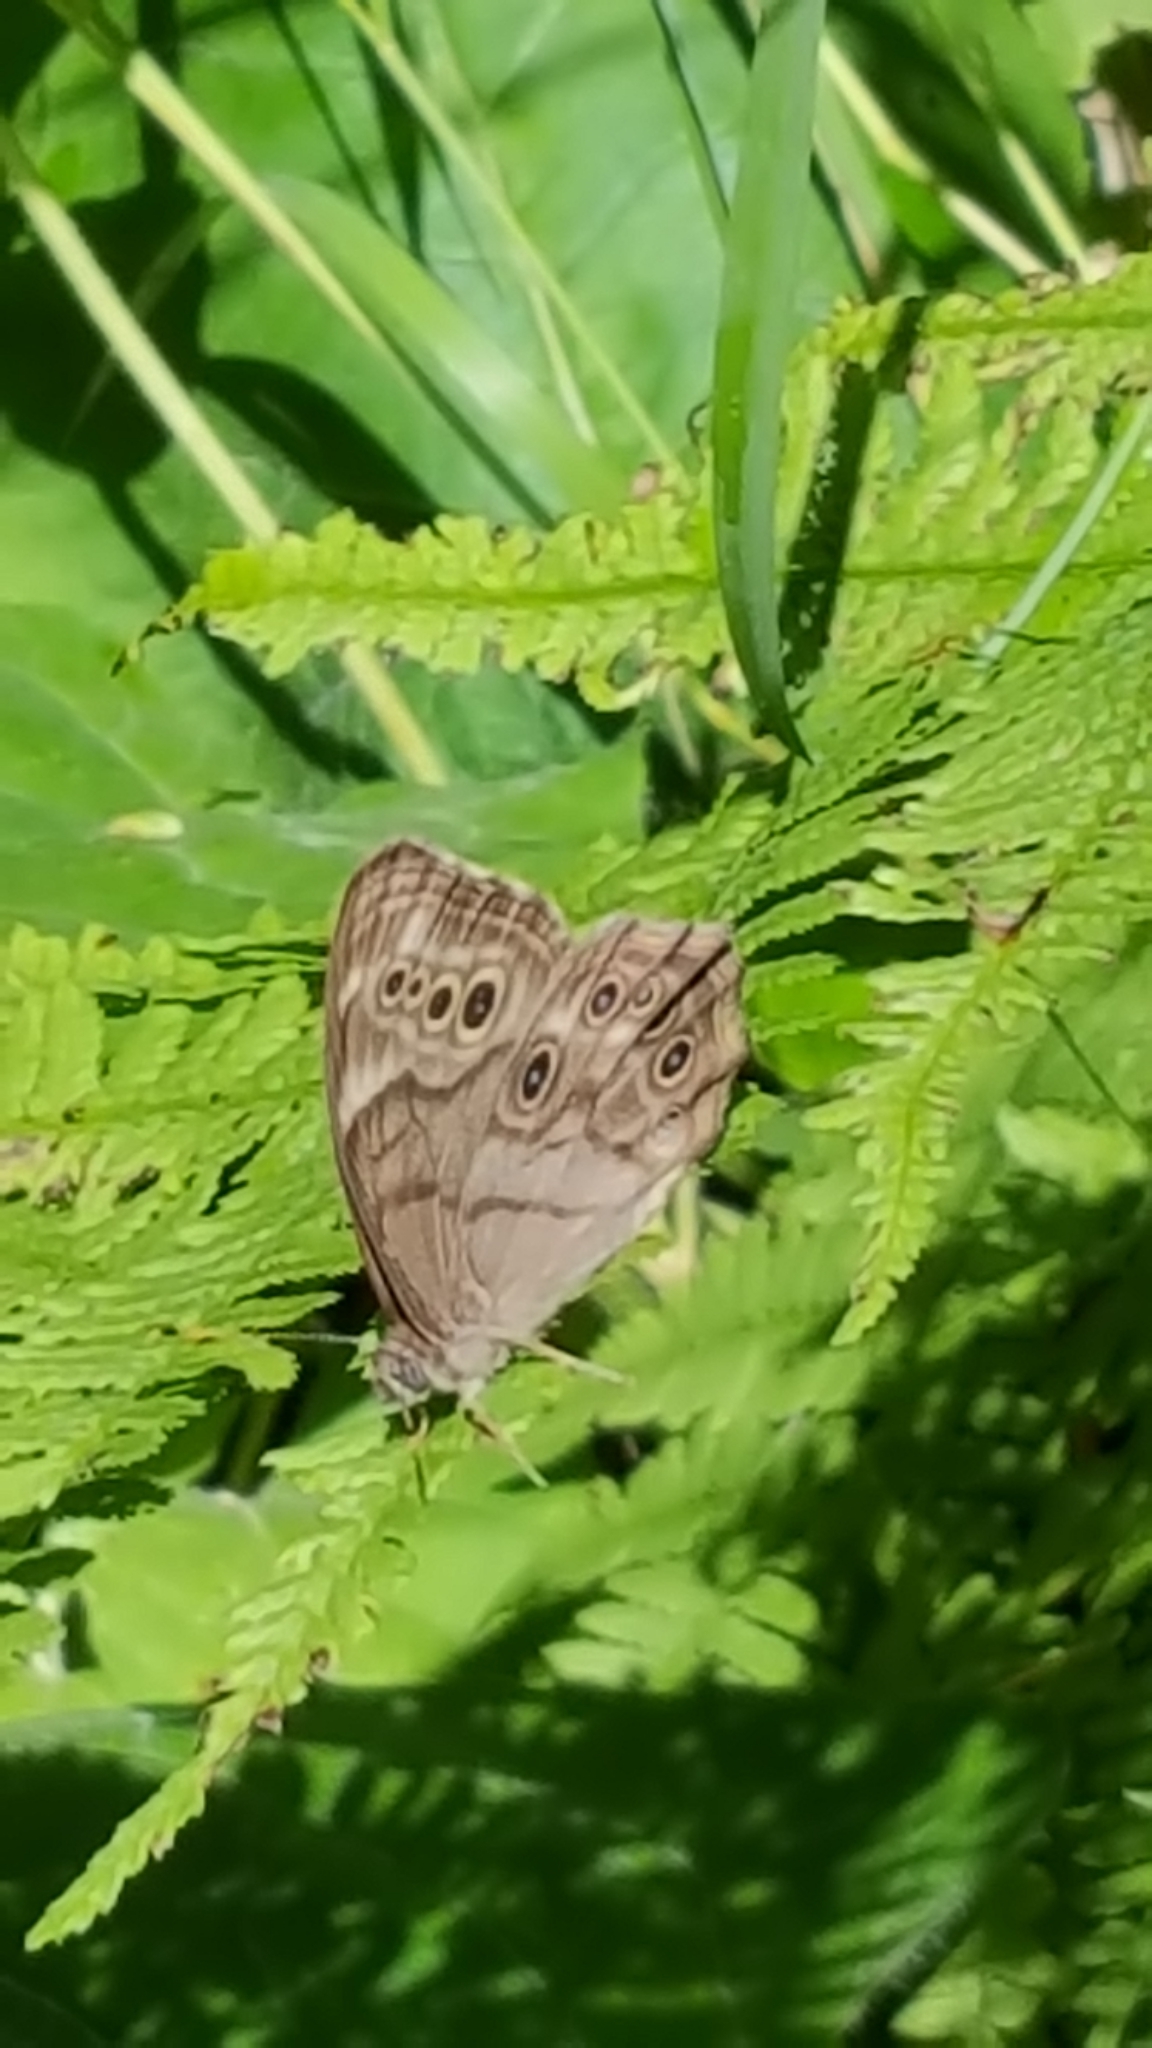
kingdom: Animalia
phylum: Arthropoda
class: Insecta
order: Lepidoptera
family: Nymphalidae
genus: Lethe
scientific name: Lethe anthedon
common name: Northern pearly-eye
